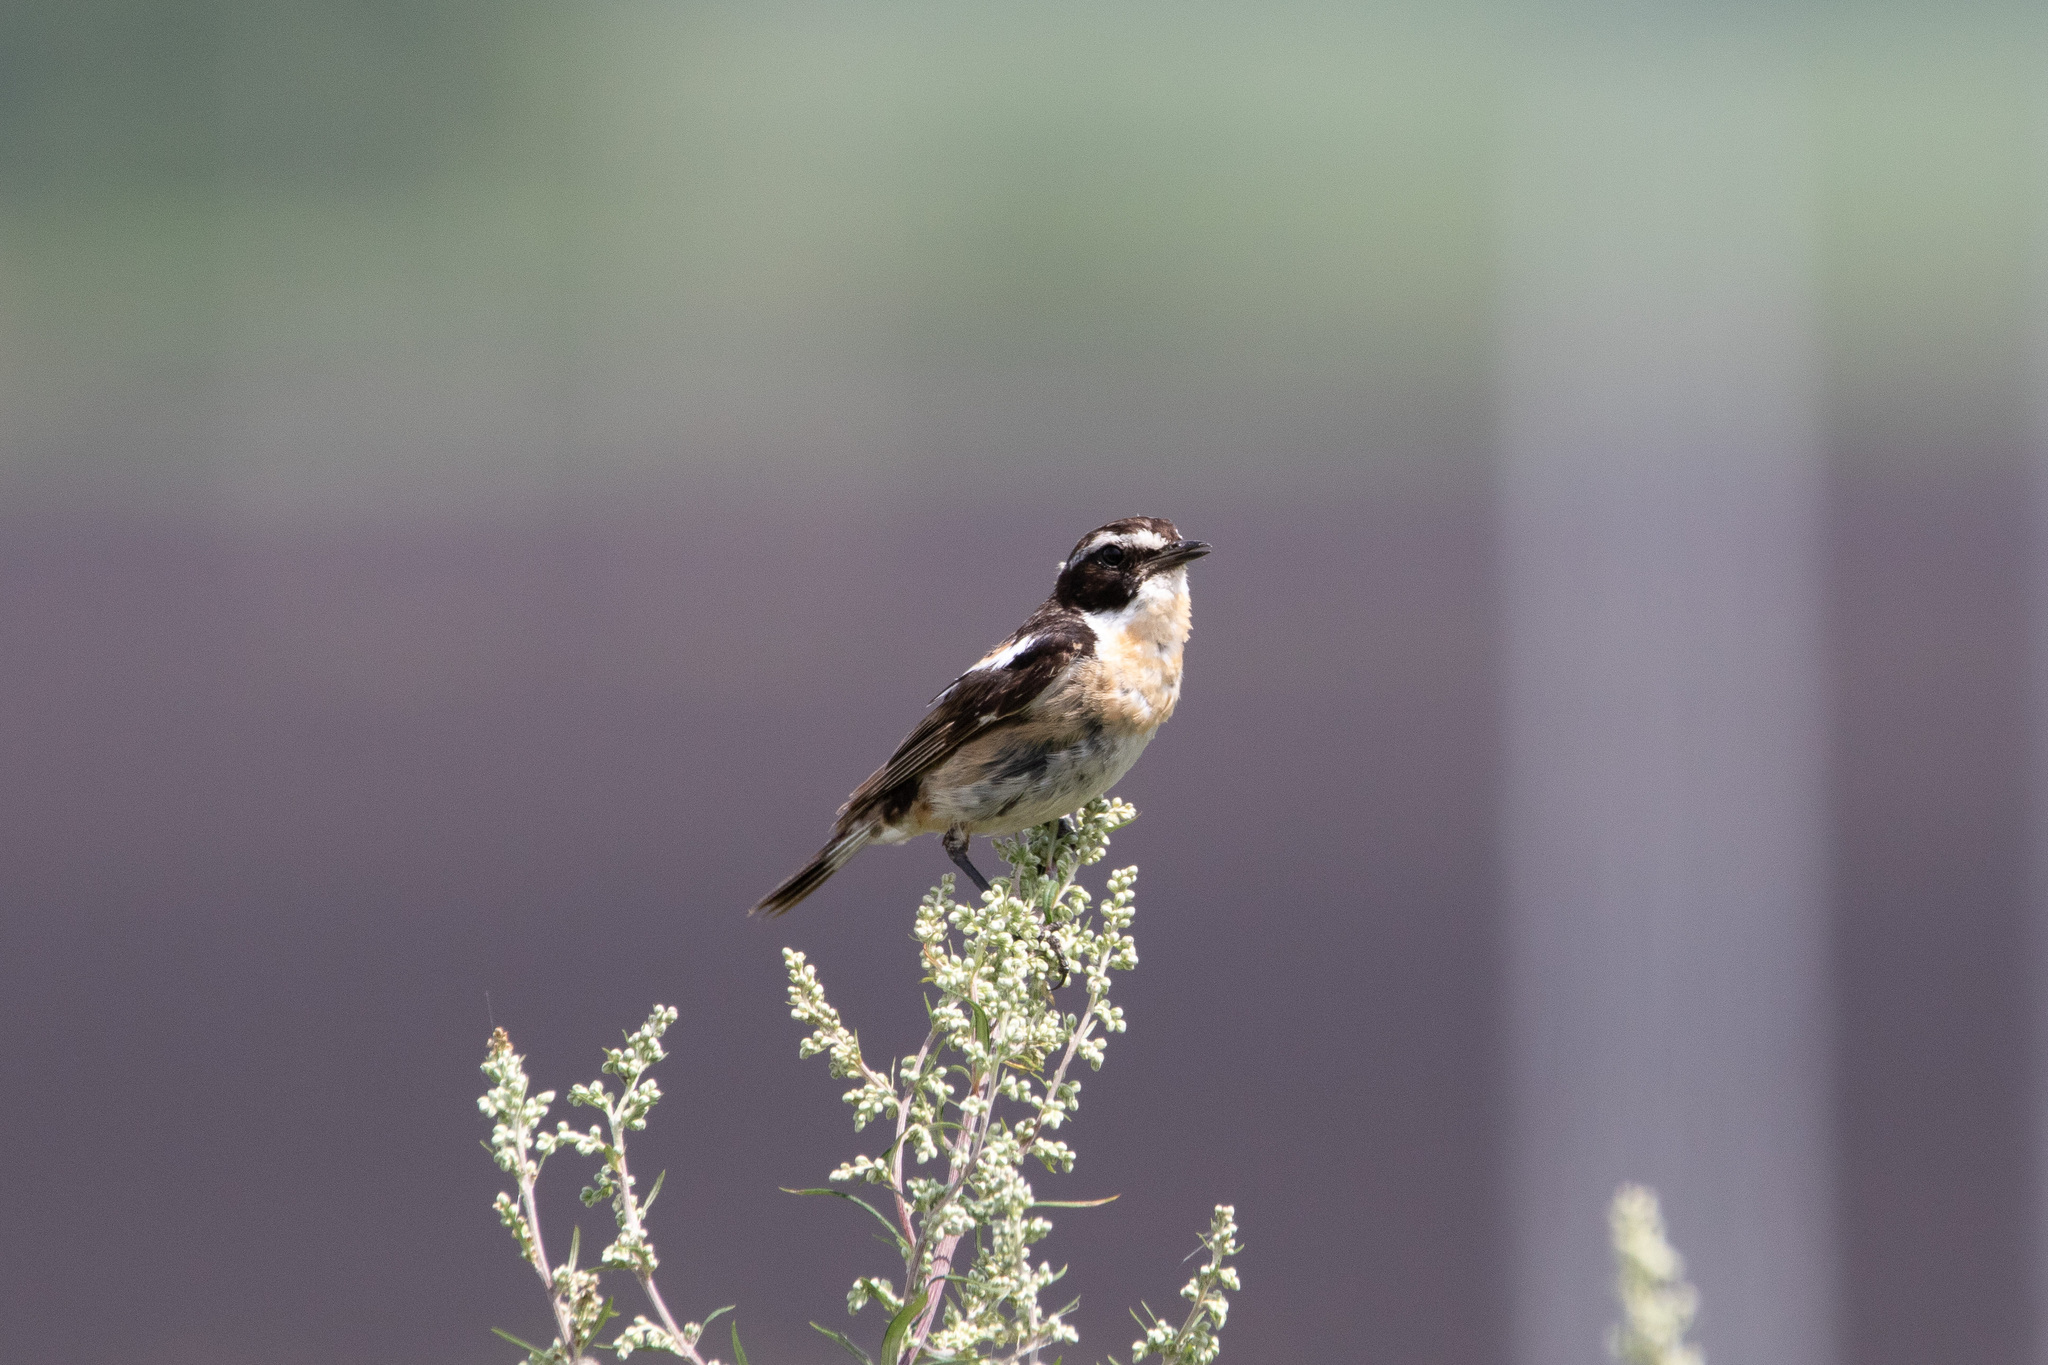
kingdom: Animalia
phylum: Chordata
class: Aves
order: Passeriformes
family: Muscicapidae
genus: Saxicola
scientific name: Saxicola rubetra
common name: Whinchat
